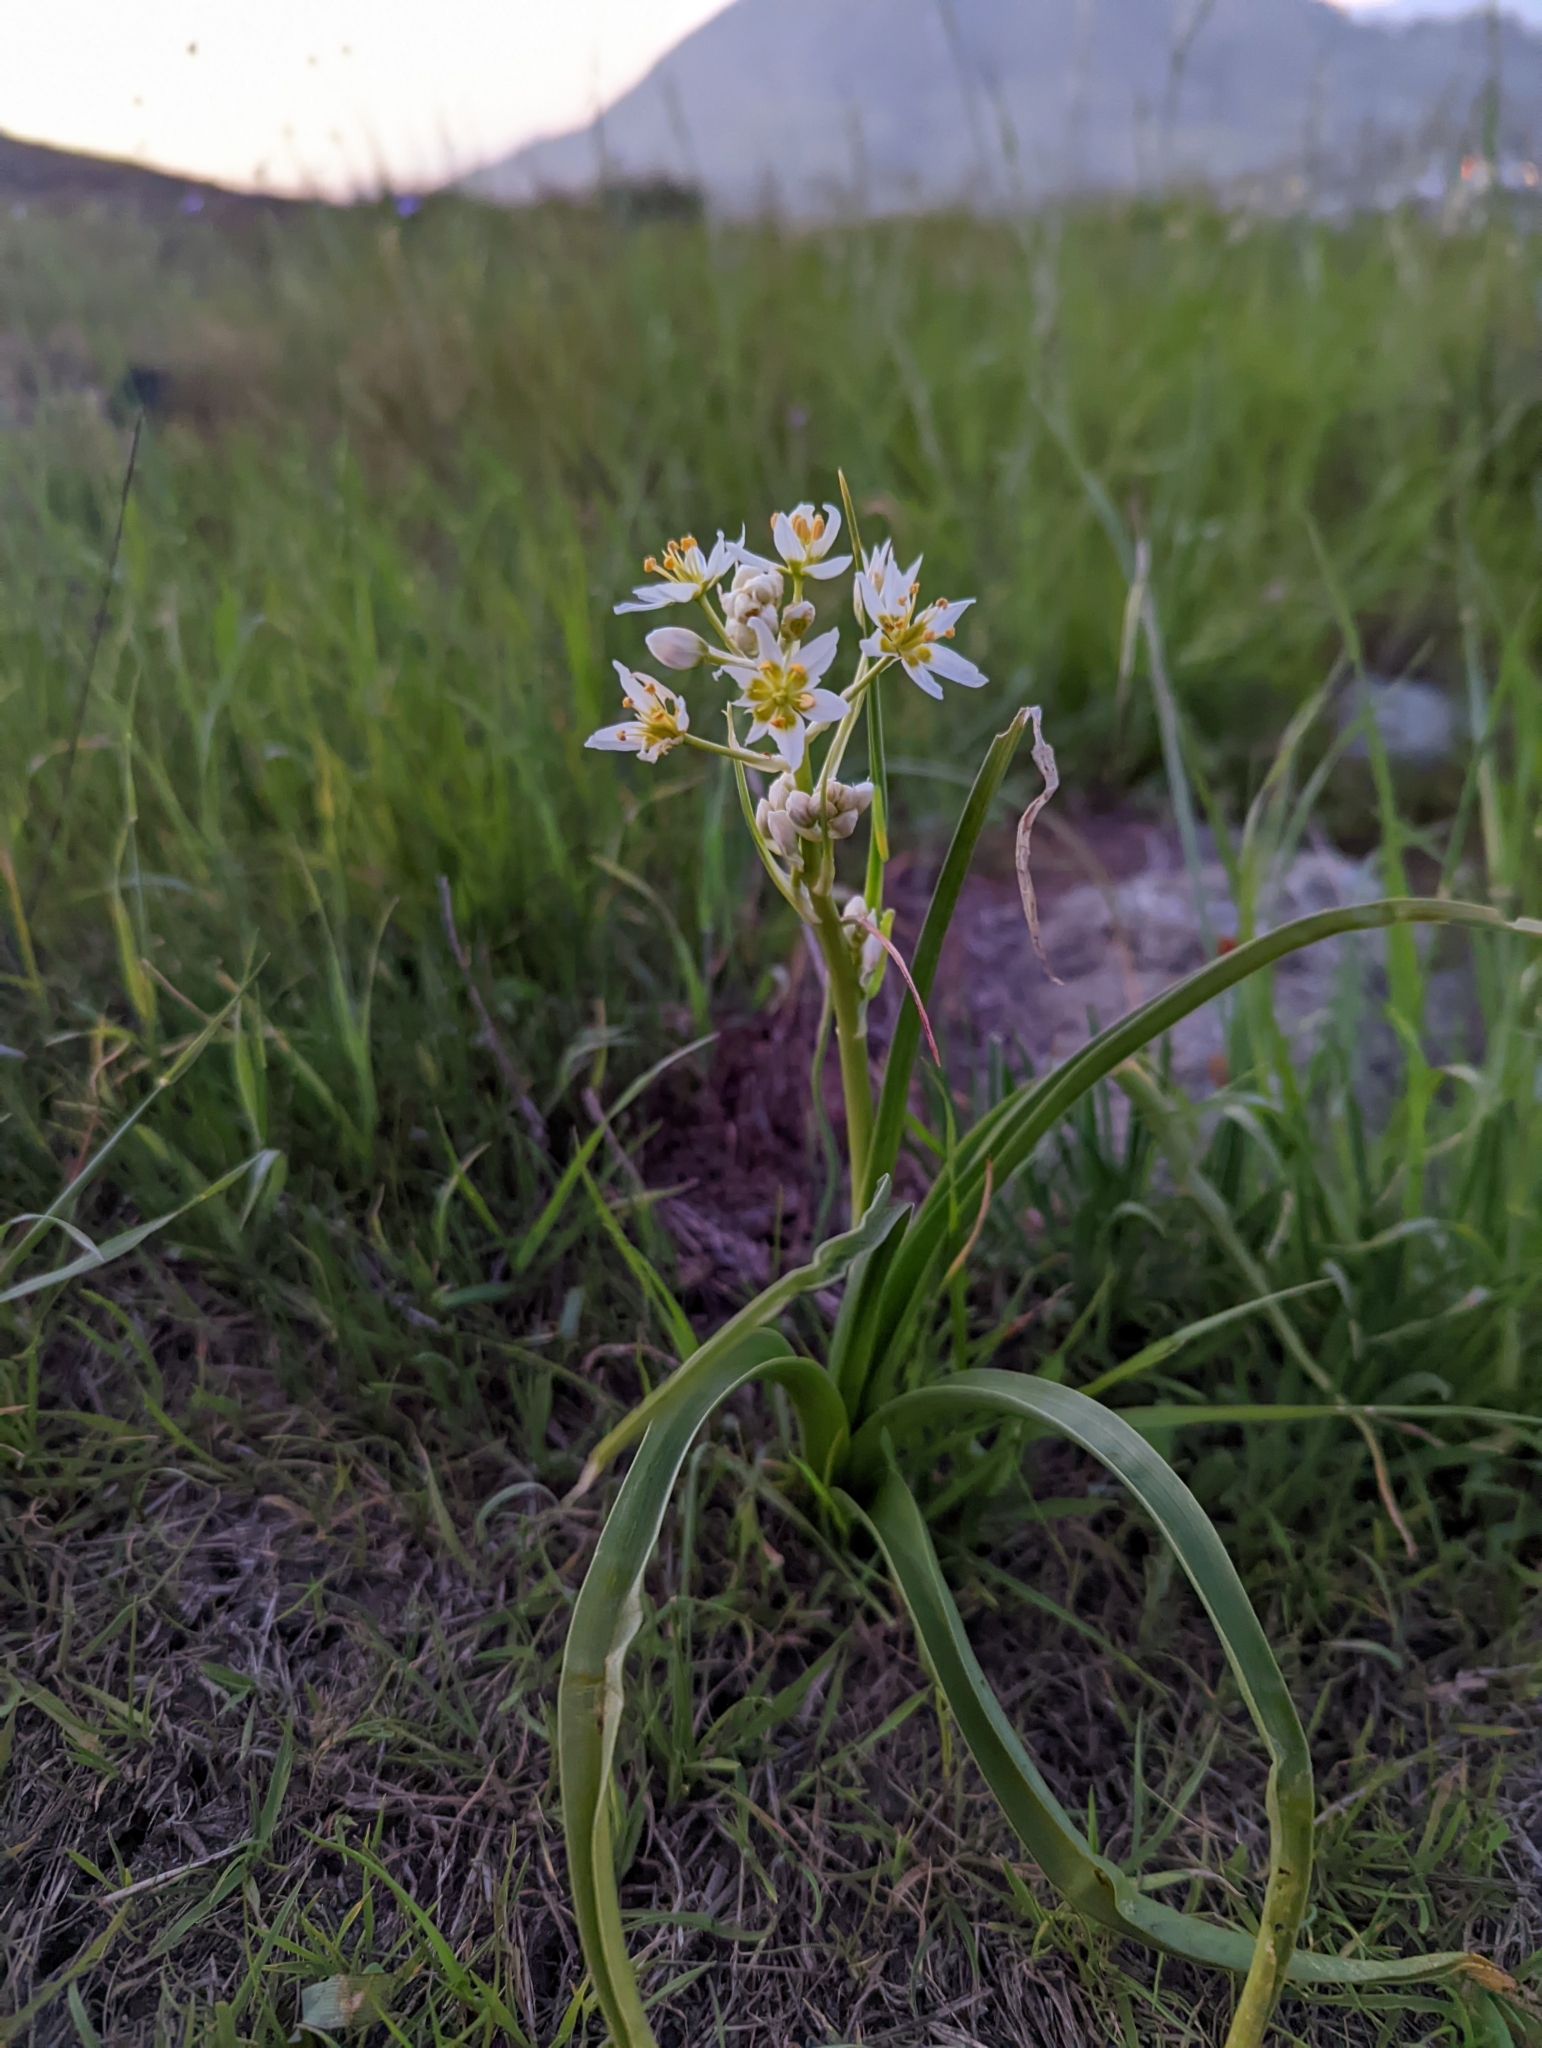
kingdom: Plantae
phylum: Tracheophyta
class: Liliopsida
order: Liliales
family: Melanthiaceae
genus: Toxicoscordion
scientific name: Toxicoscordion fremontii
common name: Fremont's death camas
